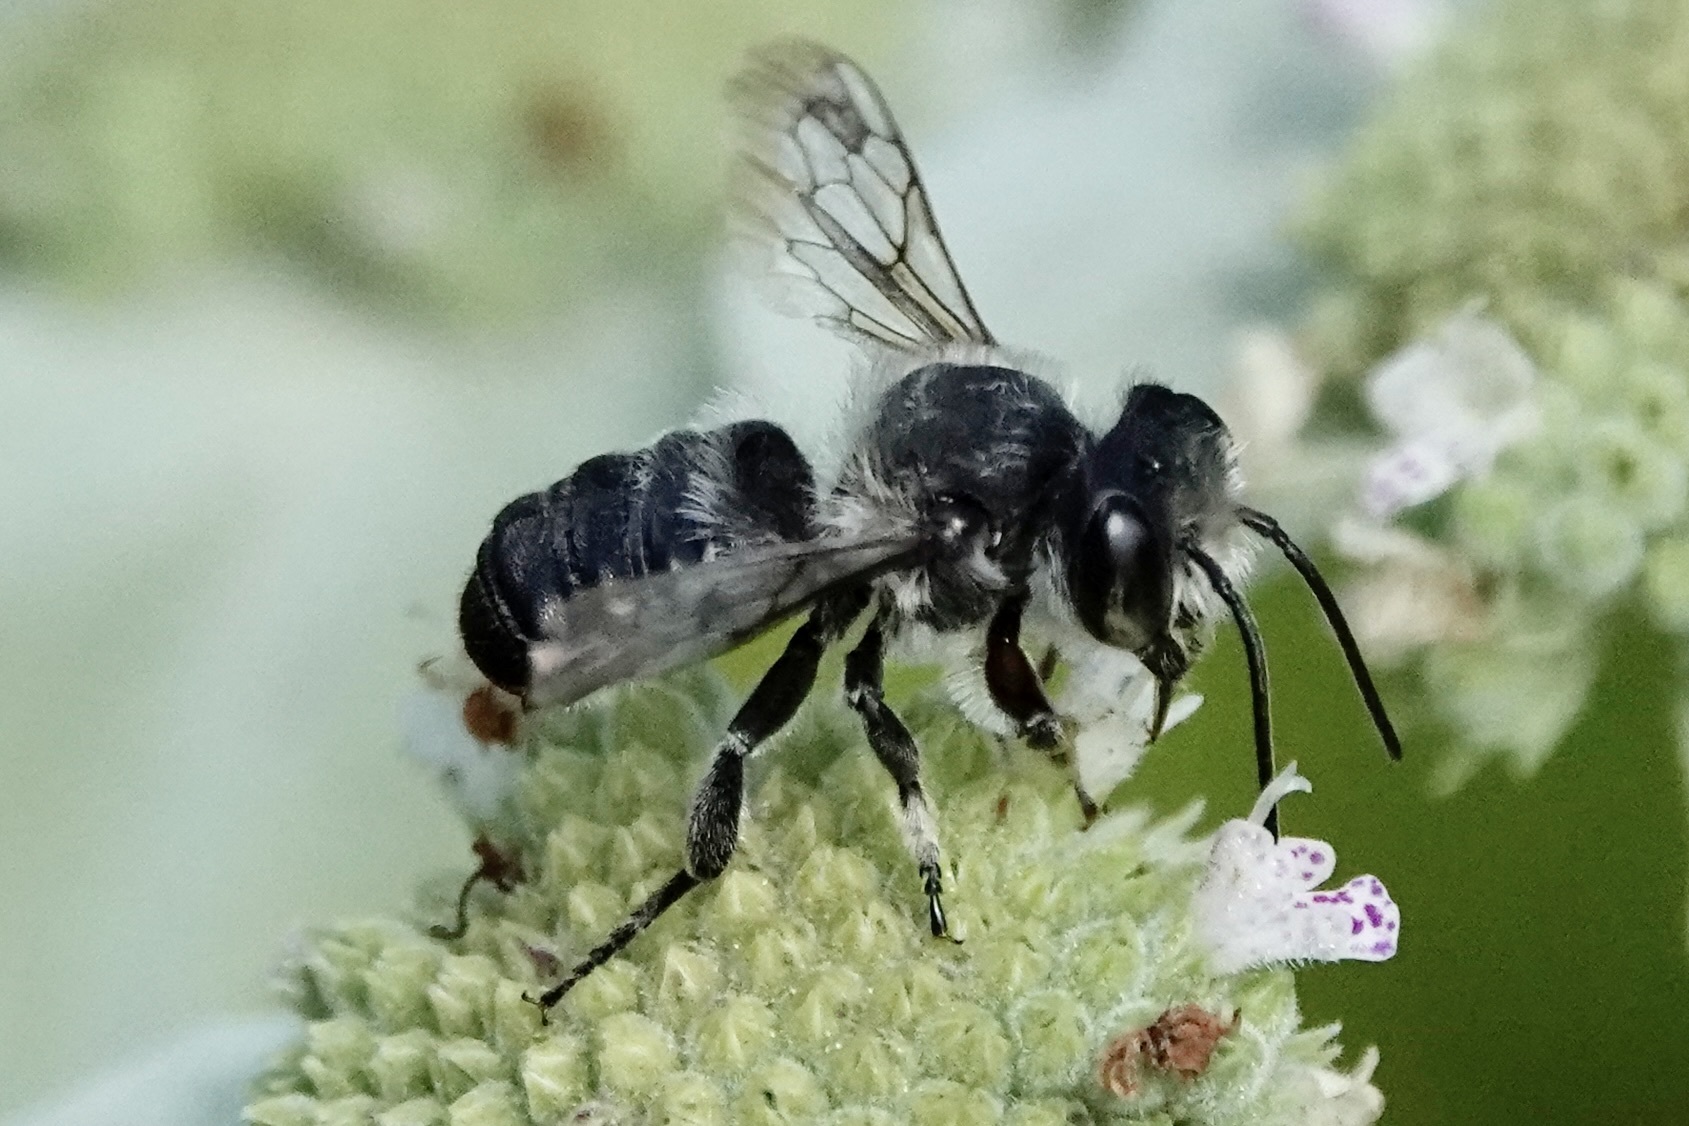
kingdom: Animalia
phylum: Arthropoda
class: Insecta
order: Hymenoptera
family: Megachilidae
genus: Megachile
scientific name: Megachile mendica
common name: Flat-tailed leafcutter
